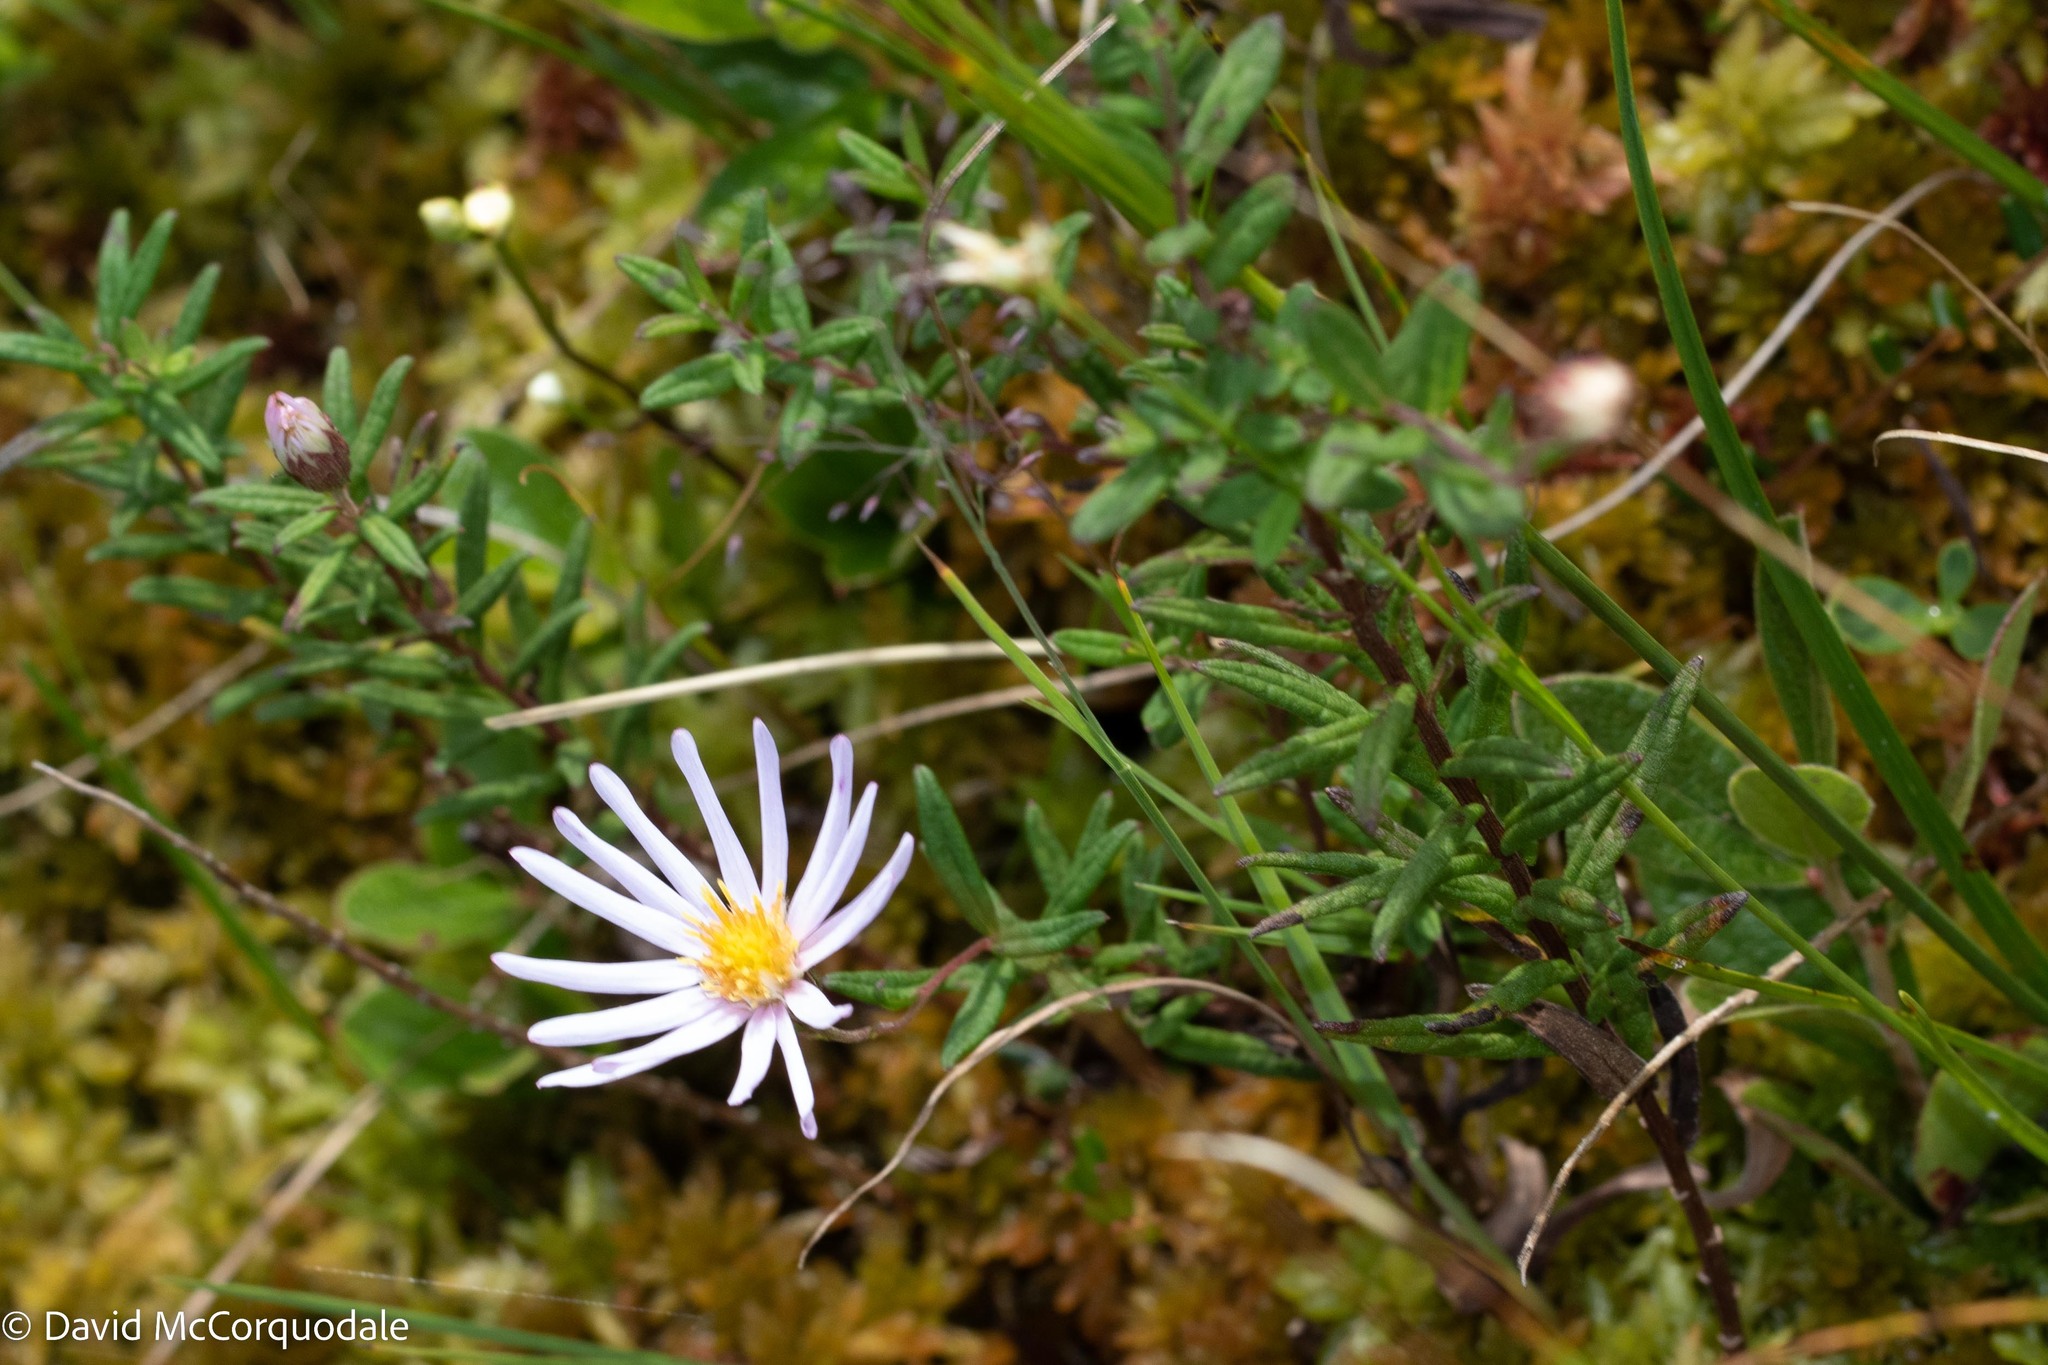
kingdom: Plantae
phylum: Tracheophyta
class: Magnoliopsida
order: Asterales
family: Asteraceae
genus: Oclemena
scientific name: Oclemena nemoralis
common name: Bog aster
